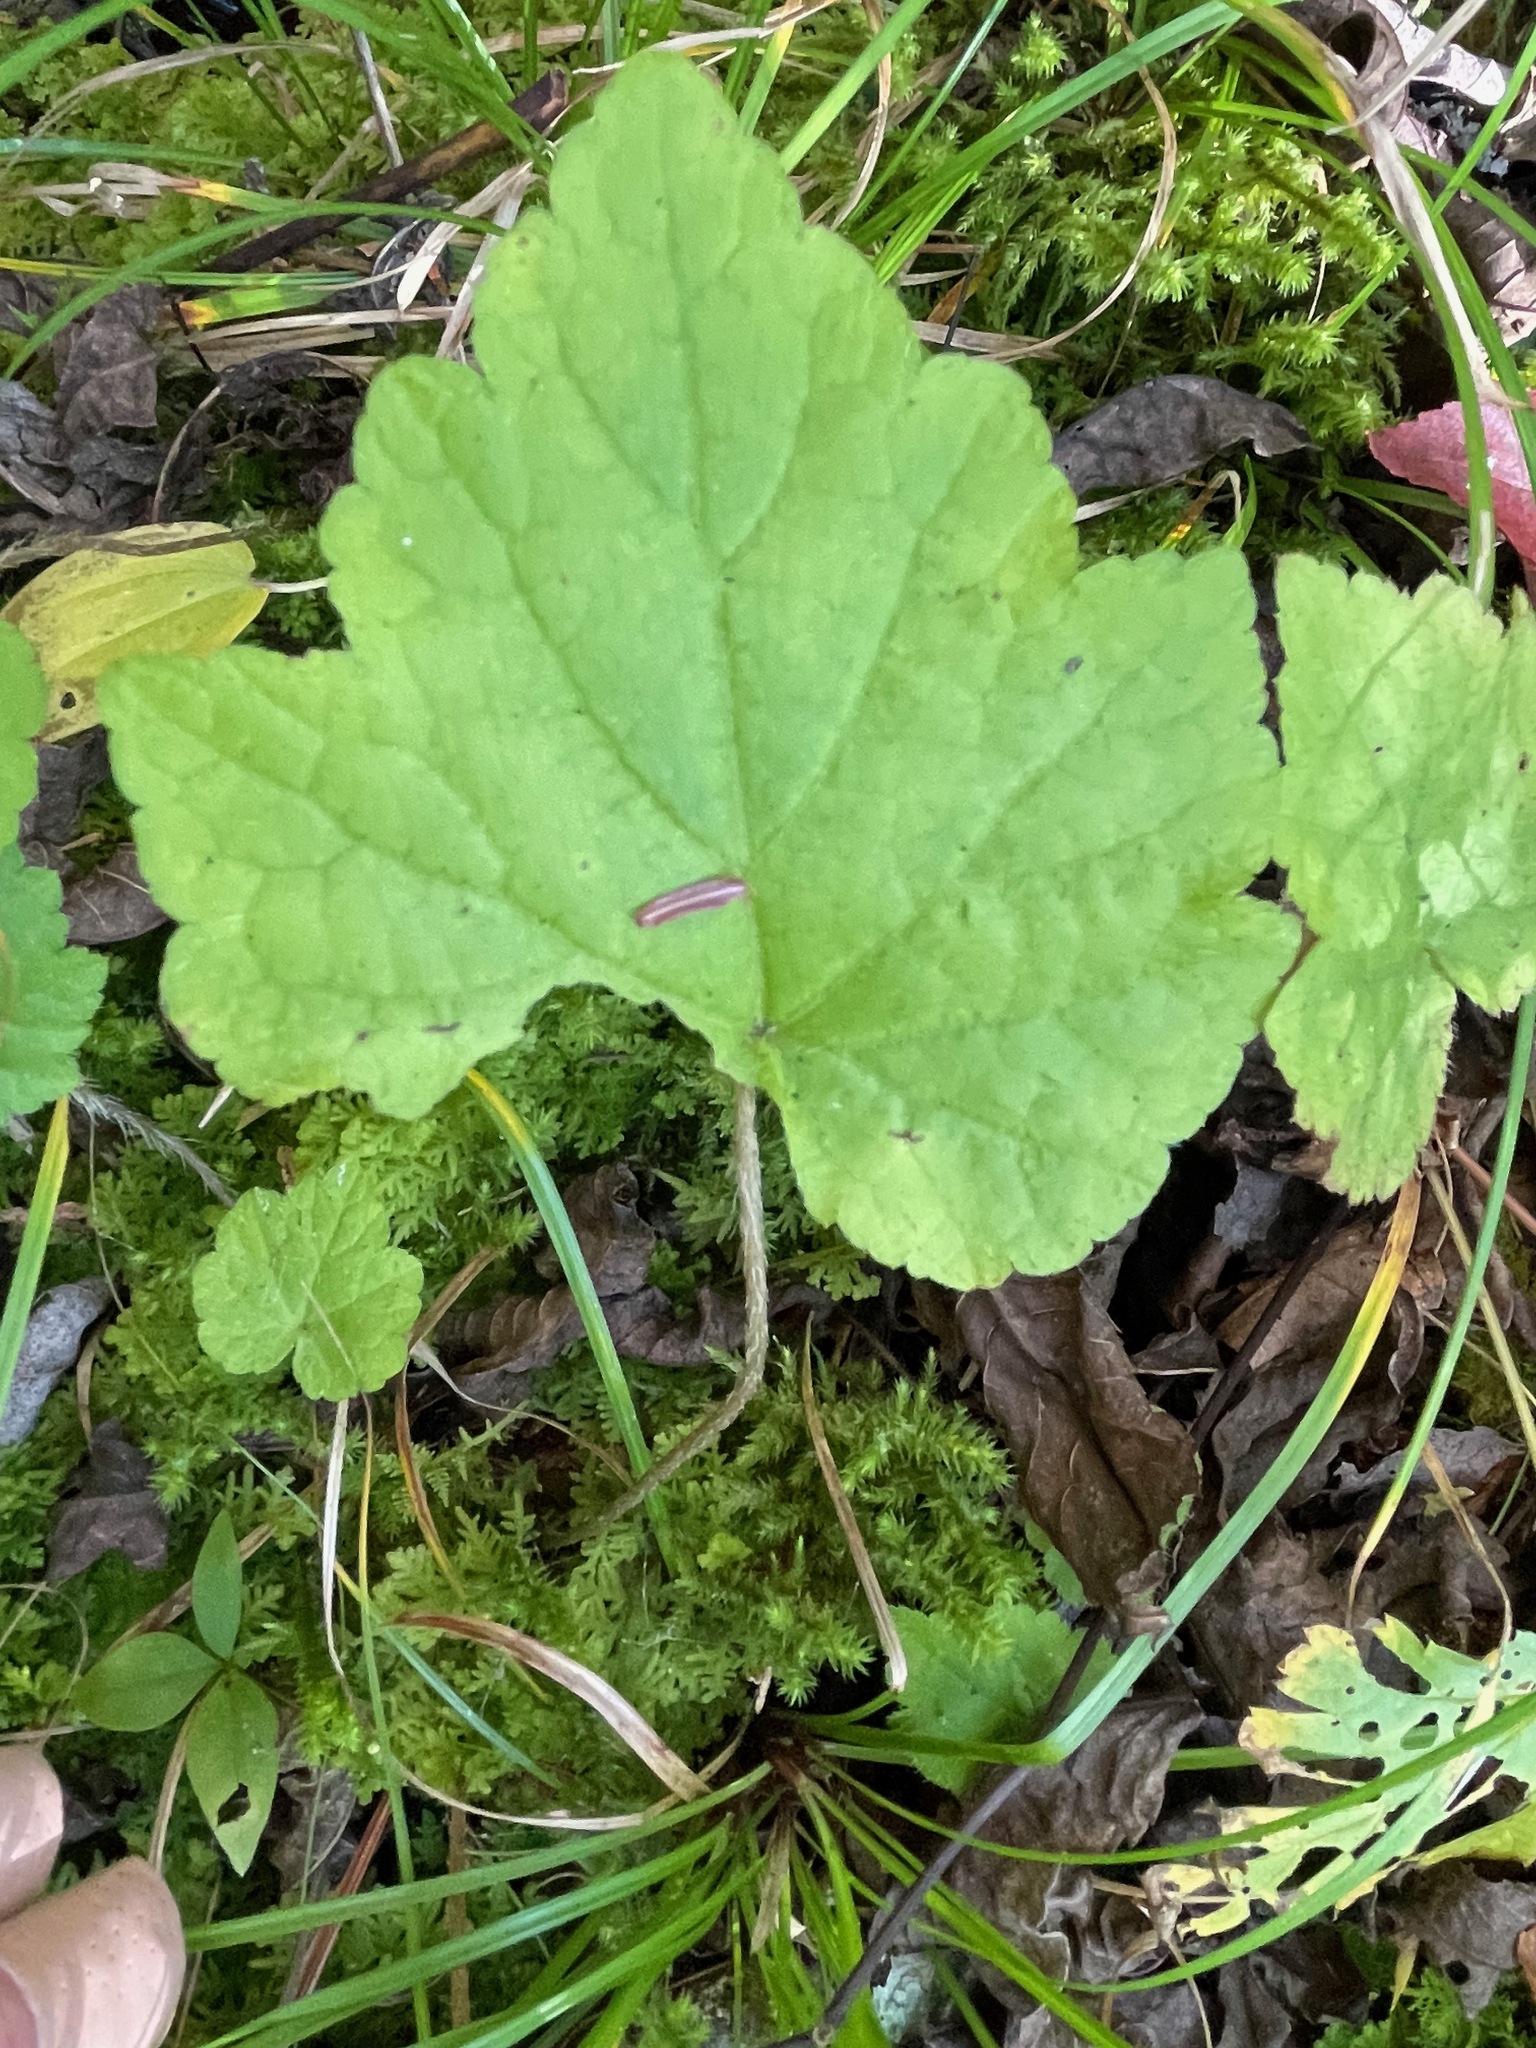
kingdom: Plantae
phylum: Tracheophyta
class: Magnoliopsida
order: Saxifragales
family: Saxifragaceae
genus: Mitella
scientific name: Mitella diphylla
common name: Coolwort
